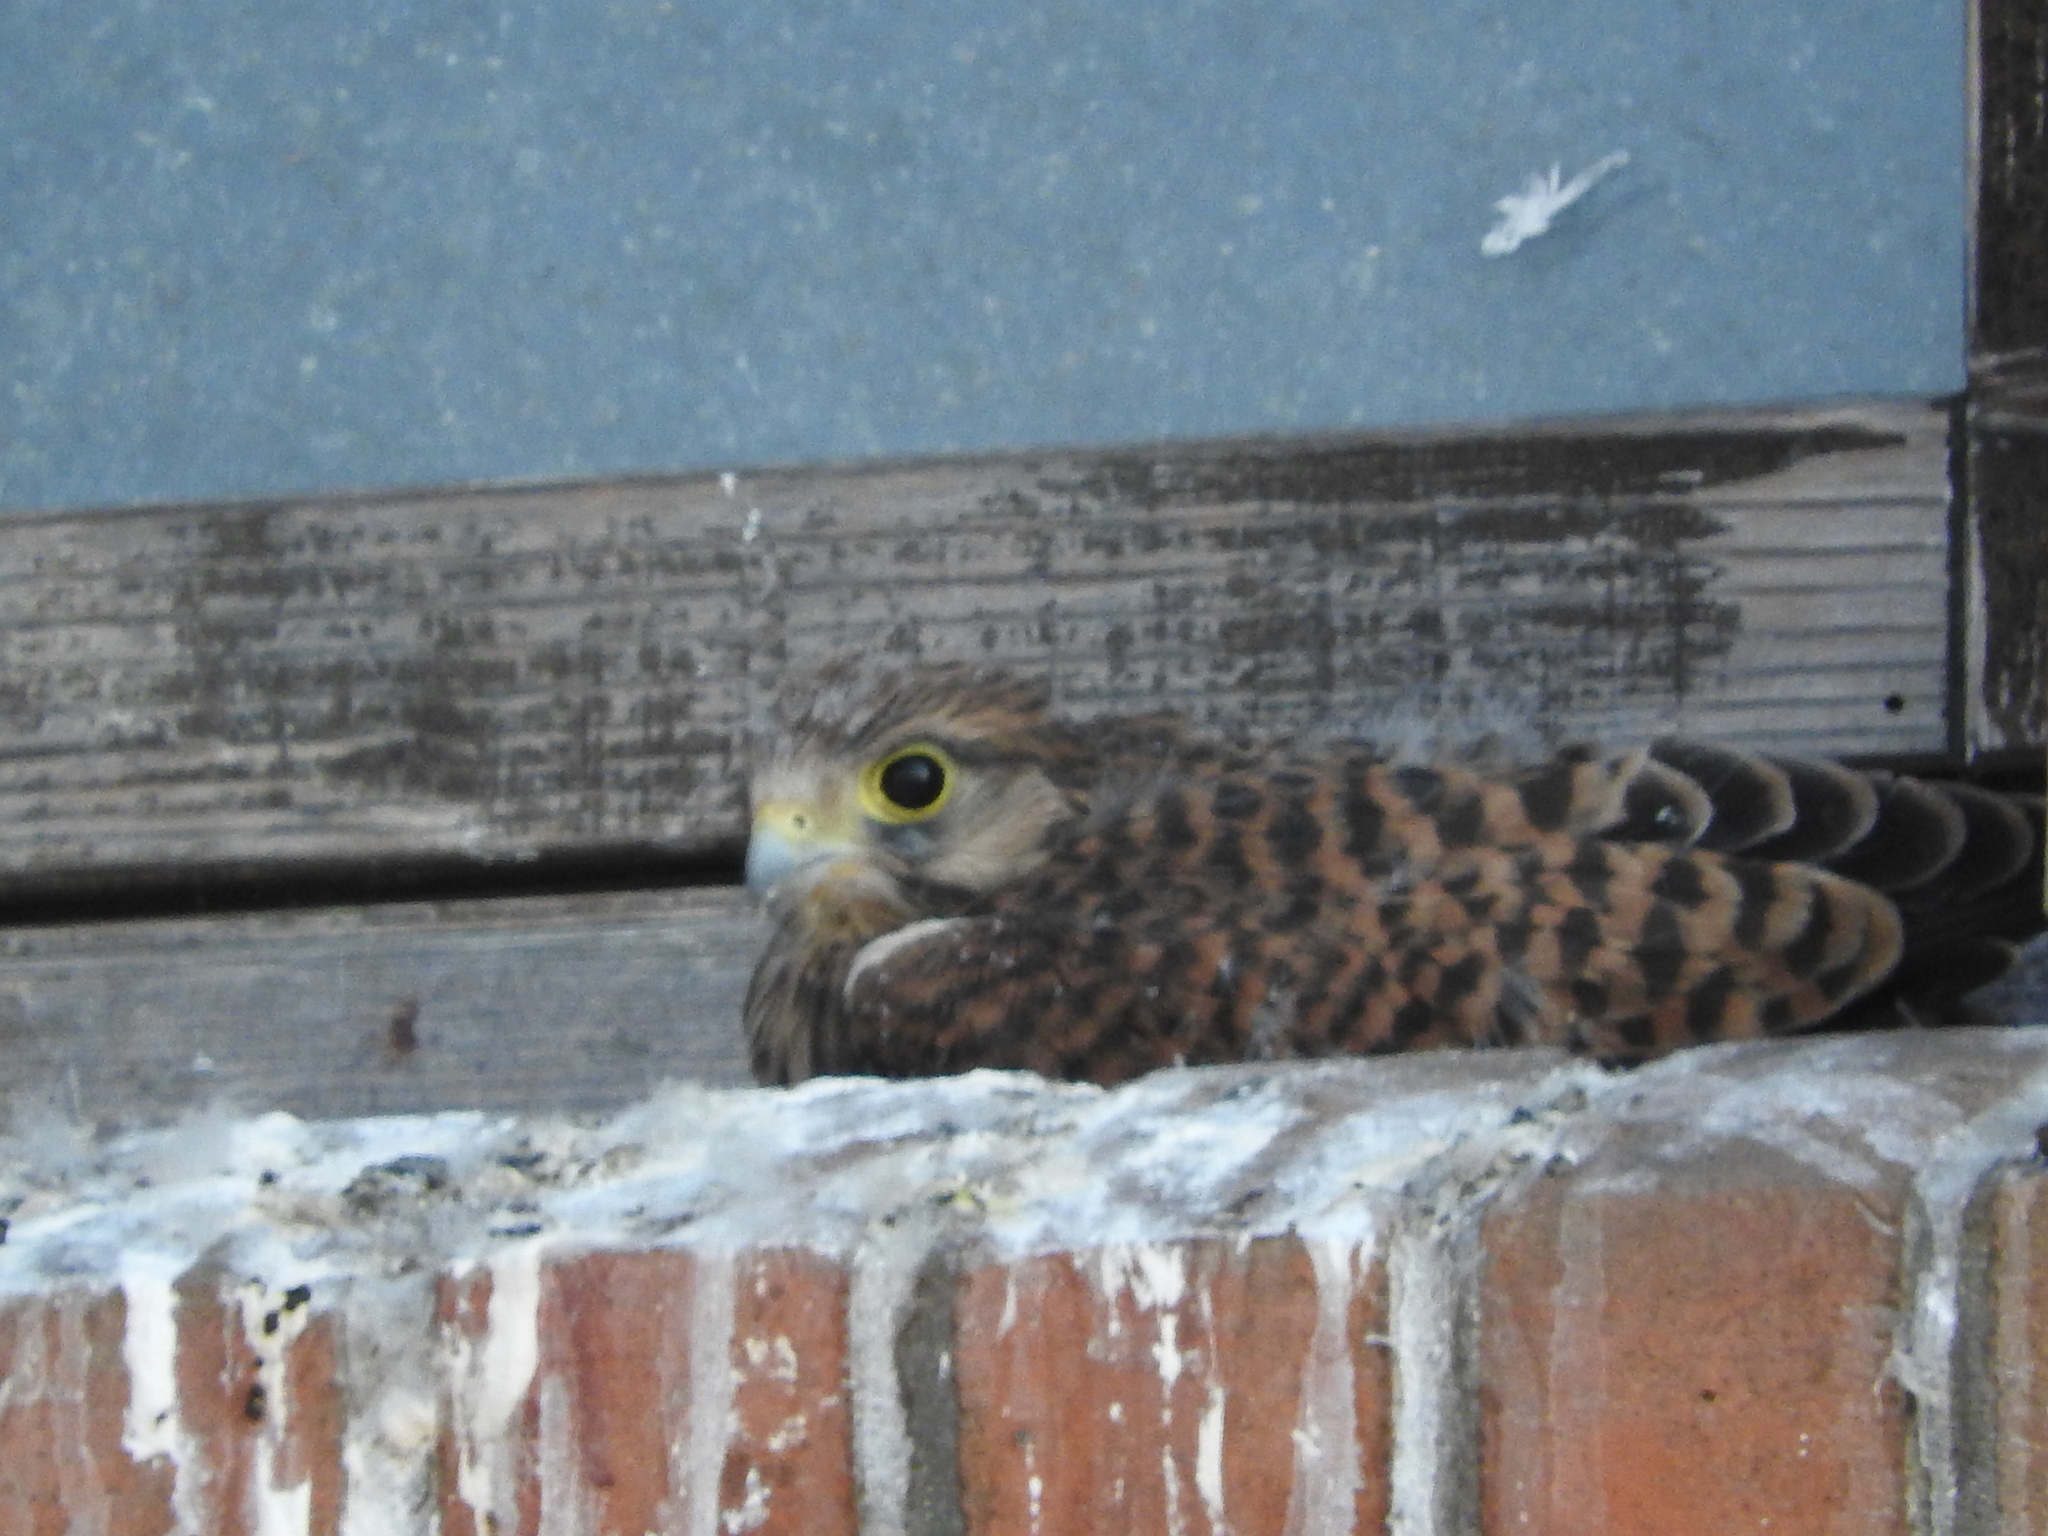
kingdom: Animalia
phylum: Chordata
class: Aves
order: Falconiformes
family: Falconidae
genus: Falco
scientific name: Falco tinnunculus
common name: Common kestrel
